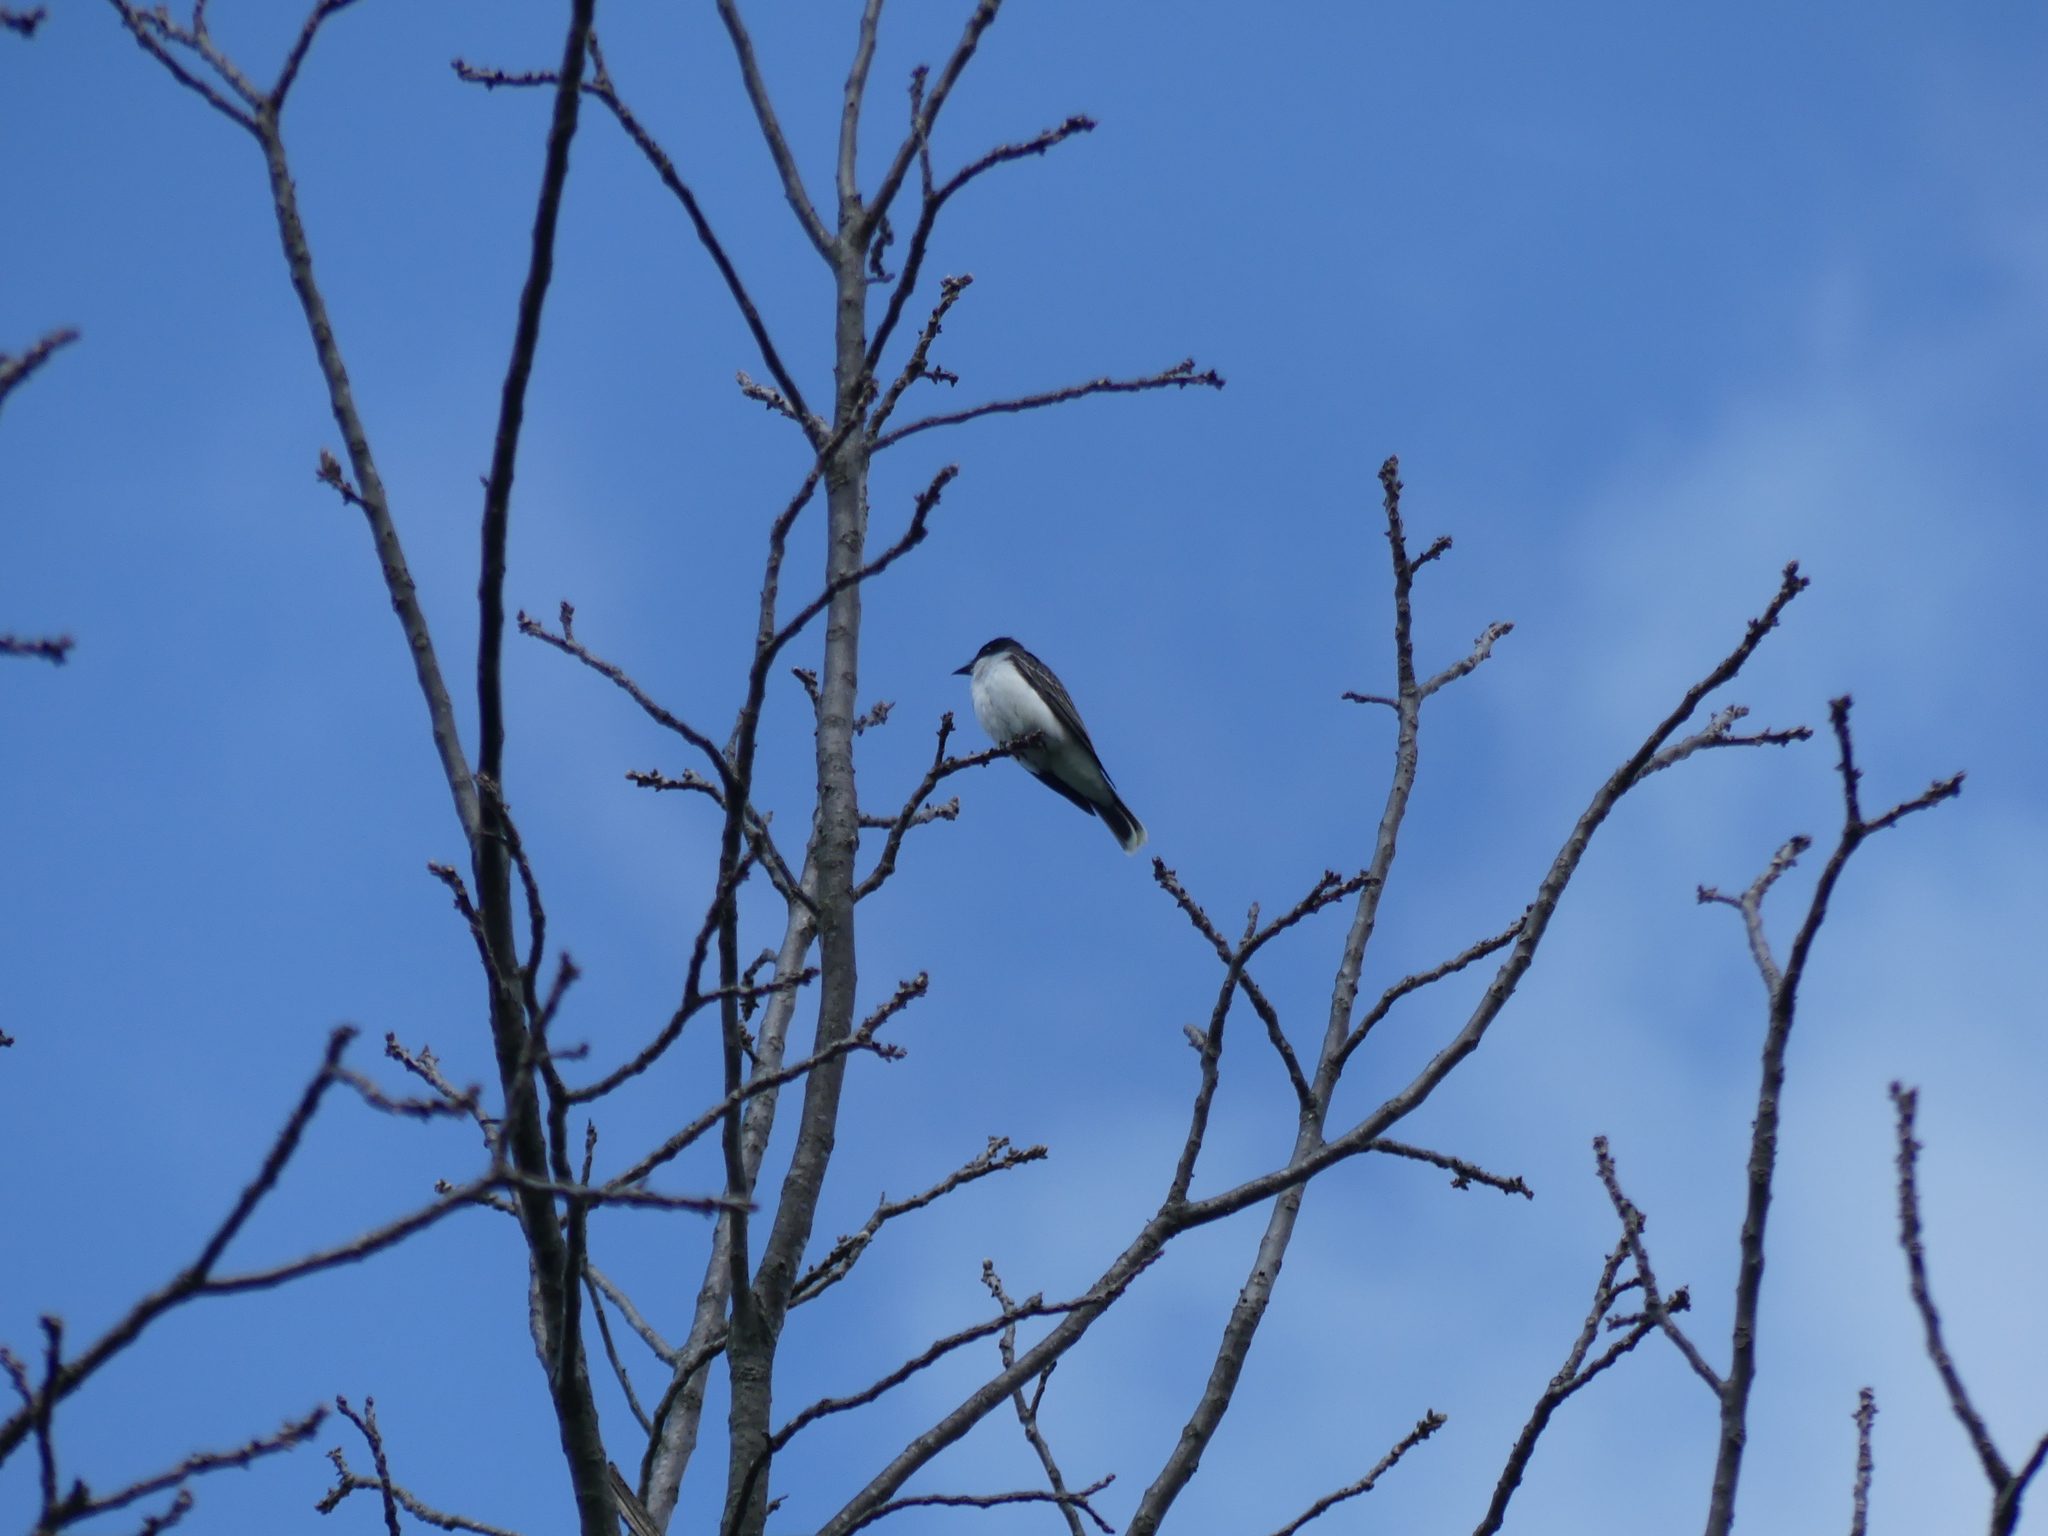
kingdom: Animalia
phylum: Chordata
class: Aves
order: Passeriformes
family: Tyrannidae
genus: Tyrannus
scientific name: Tyrannus tyrannus
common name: Eastern kingbird
